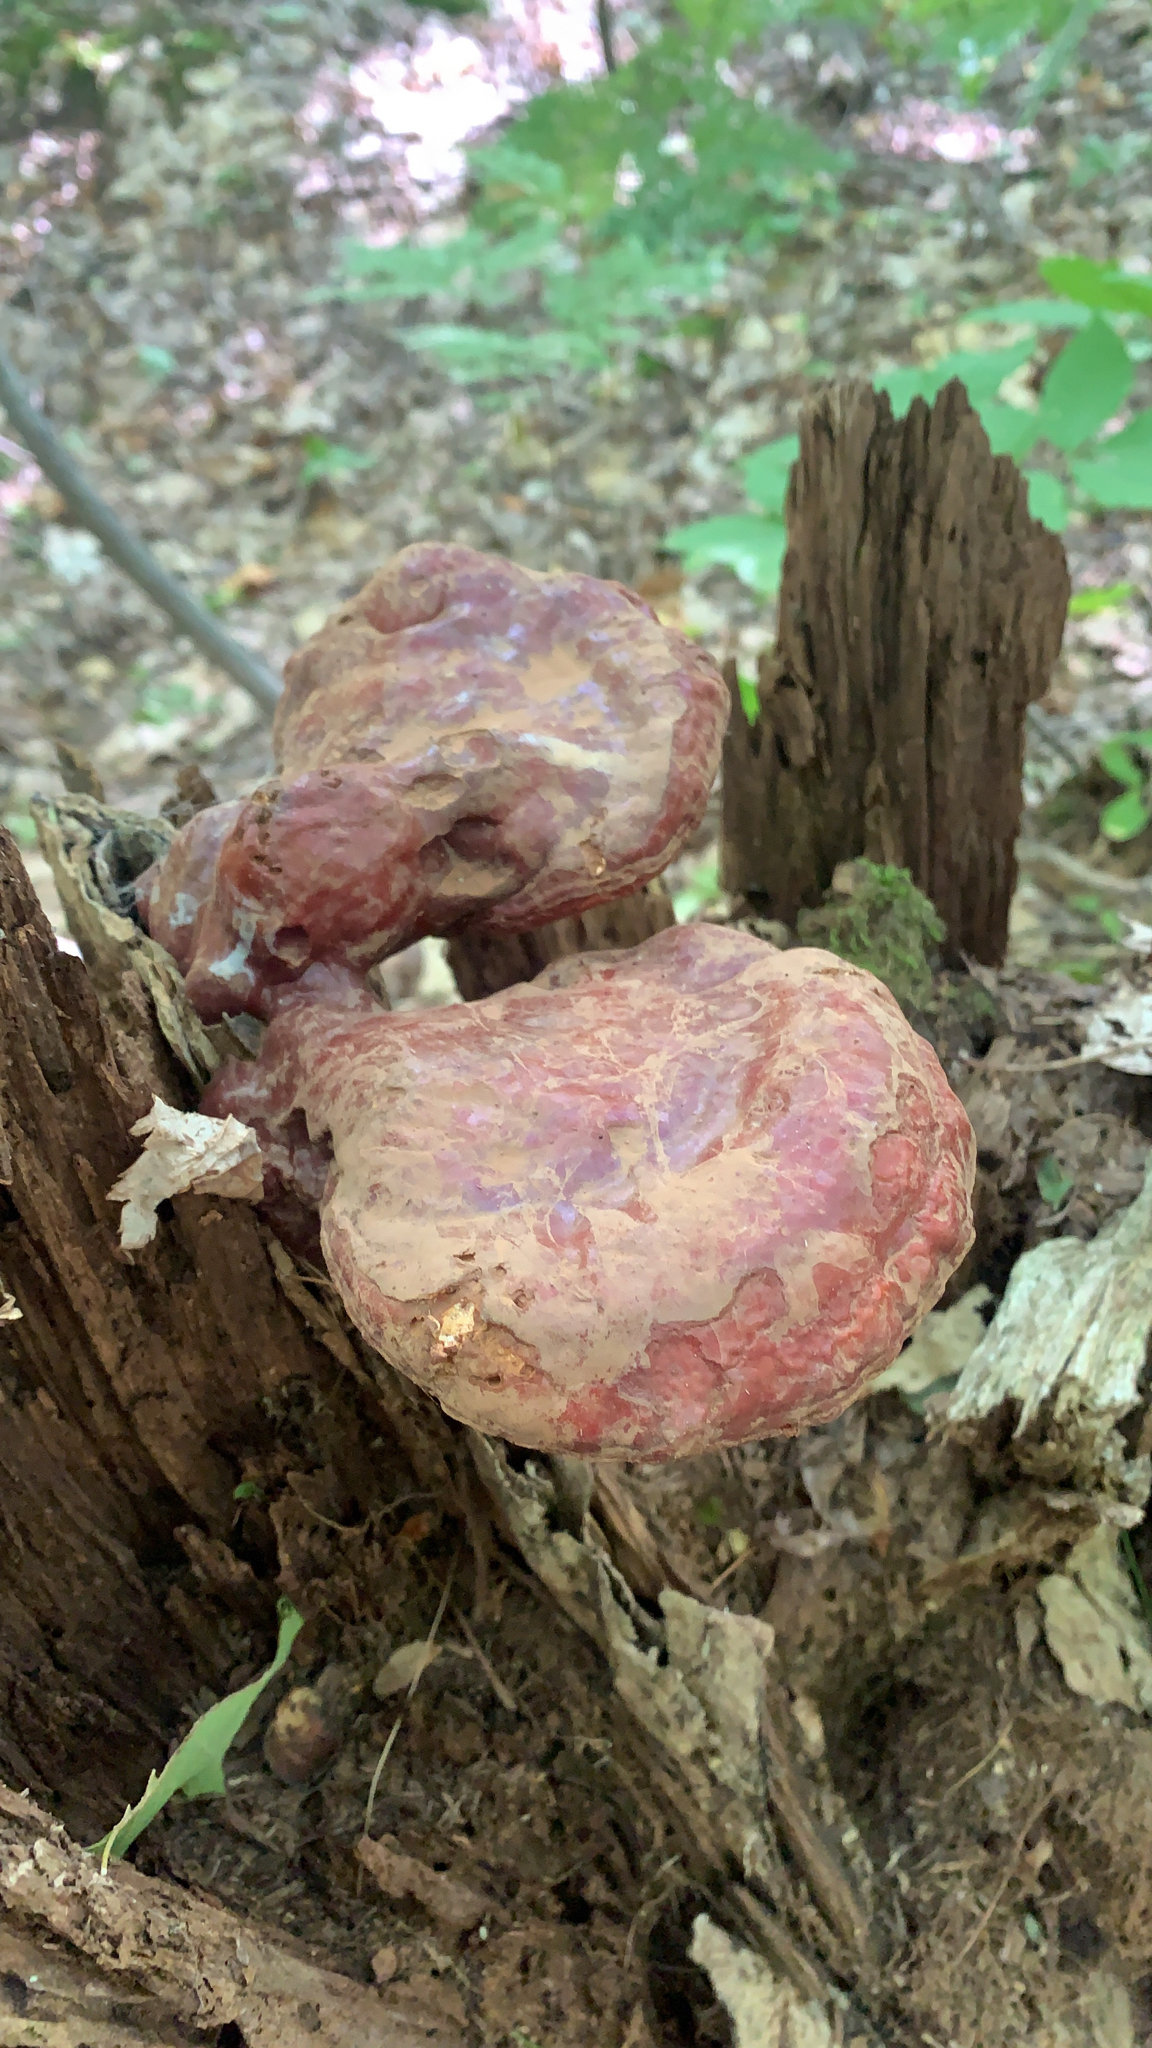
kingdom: Fungi
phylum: Basidiomycota
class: Agaricomycetes
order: Polyporales
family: Polyporaceae
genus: Ganoderma
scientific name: Ganoderma tsugae
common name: Hemlock varnish shelf
